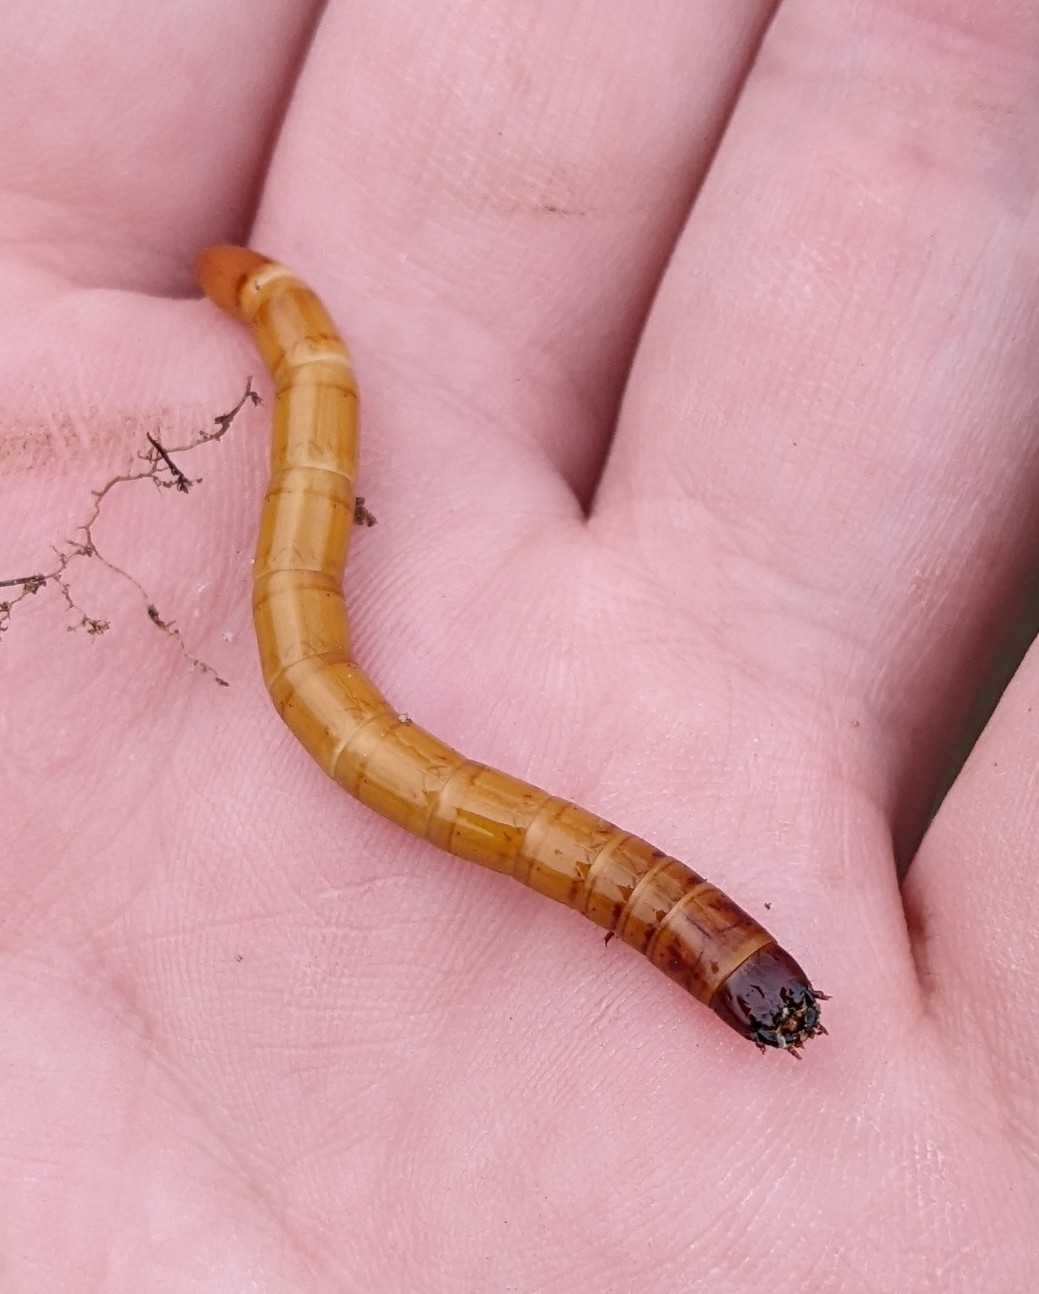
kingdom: Animalia
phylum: Arthropoda
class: Insecta
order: Coleoptera
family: Elateridae
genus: Orthostethus
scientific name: Orthostethus infuscatus
